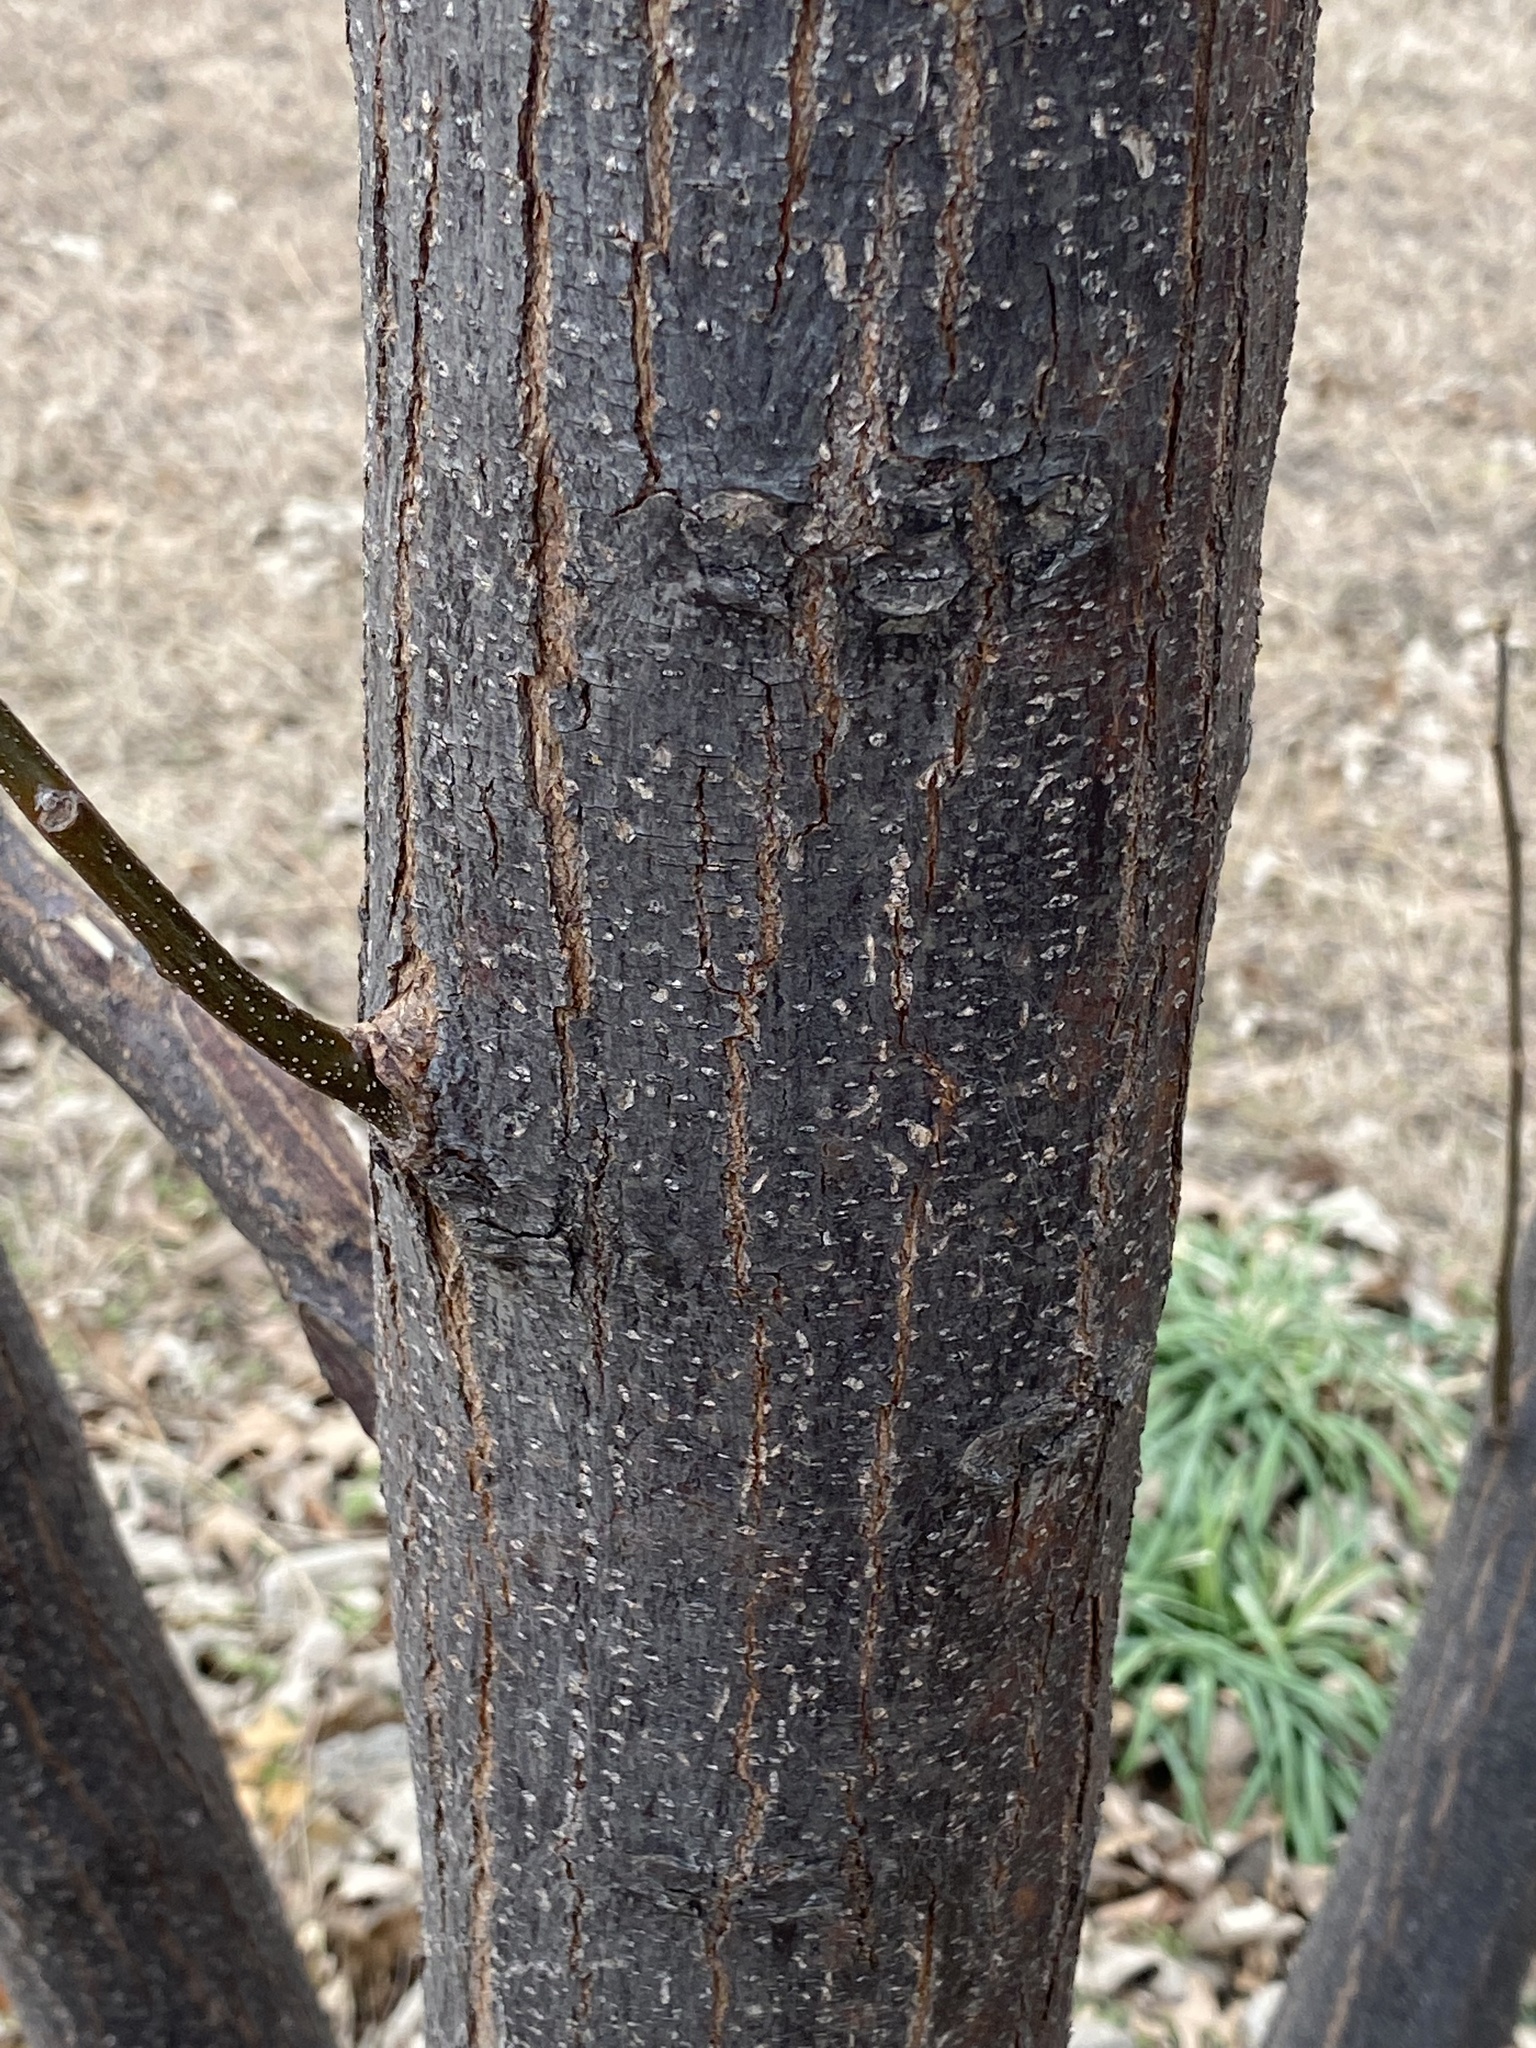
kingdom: Plantae
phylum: Tracheophyta
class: Magnoliopsida
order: Sapindales
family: Meliaceae
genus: Melia
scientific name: Melia azedarach
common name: Chinaberrytree
